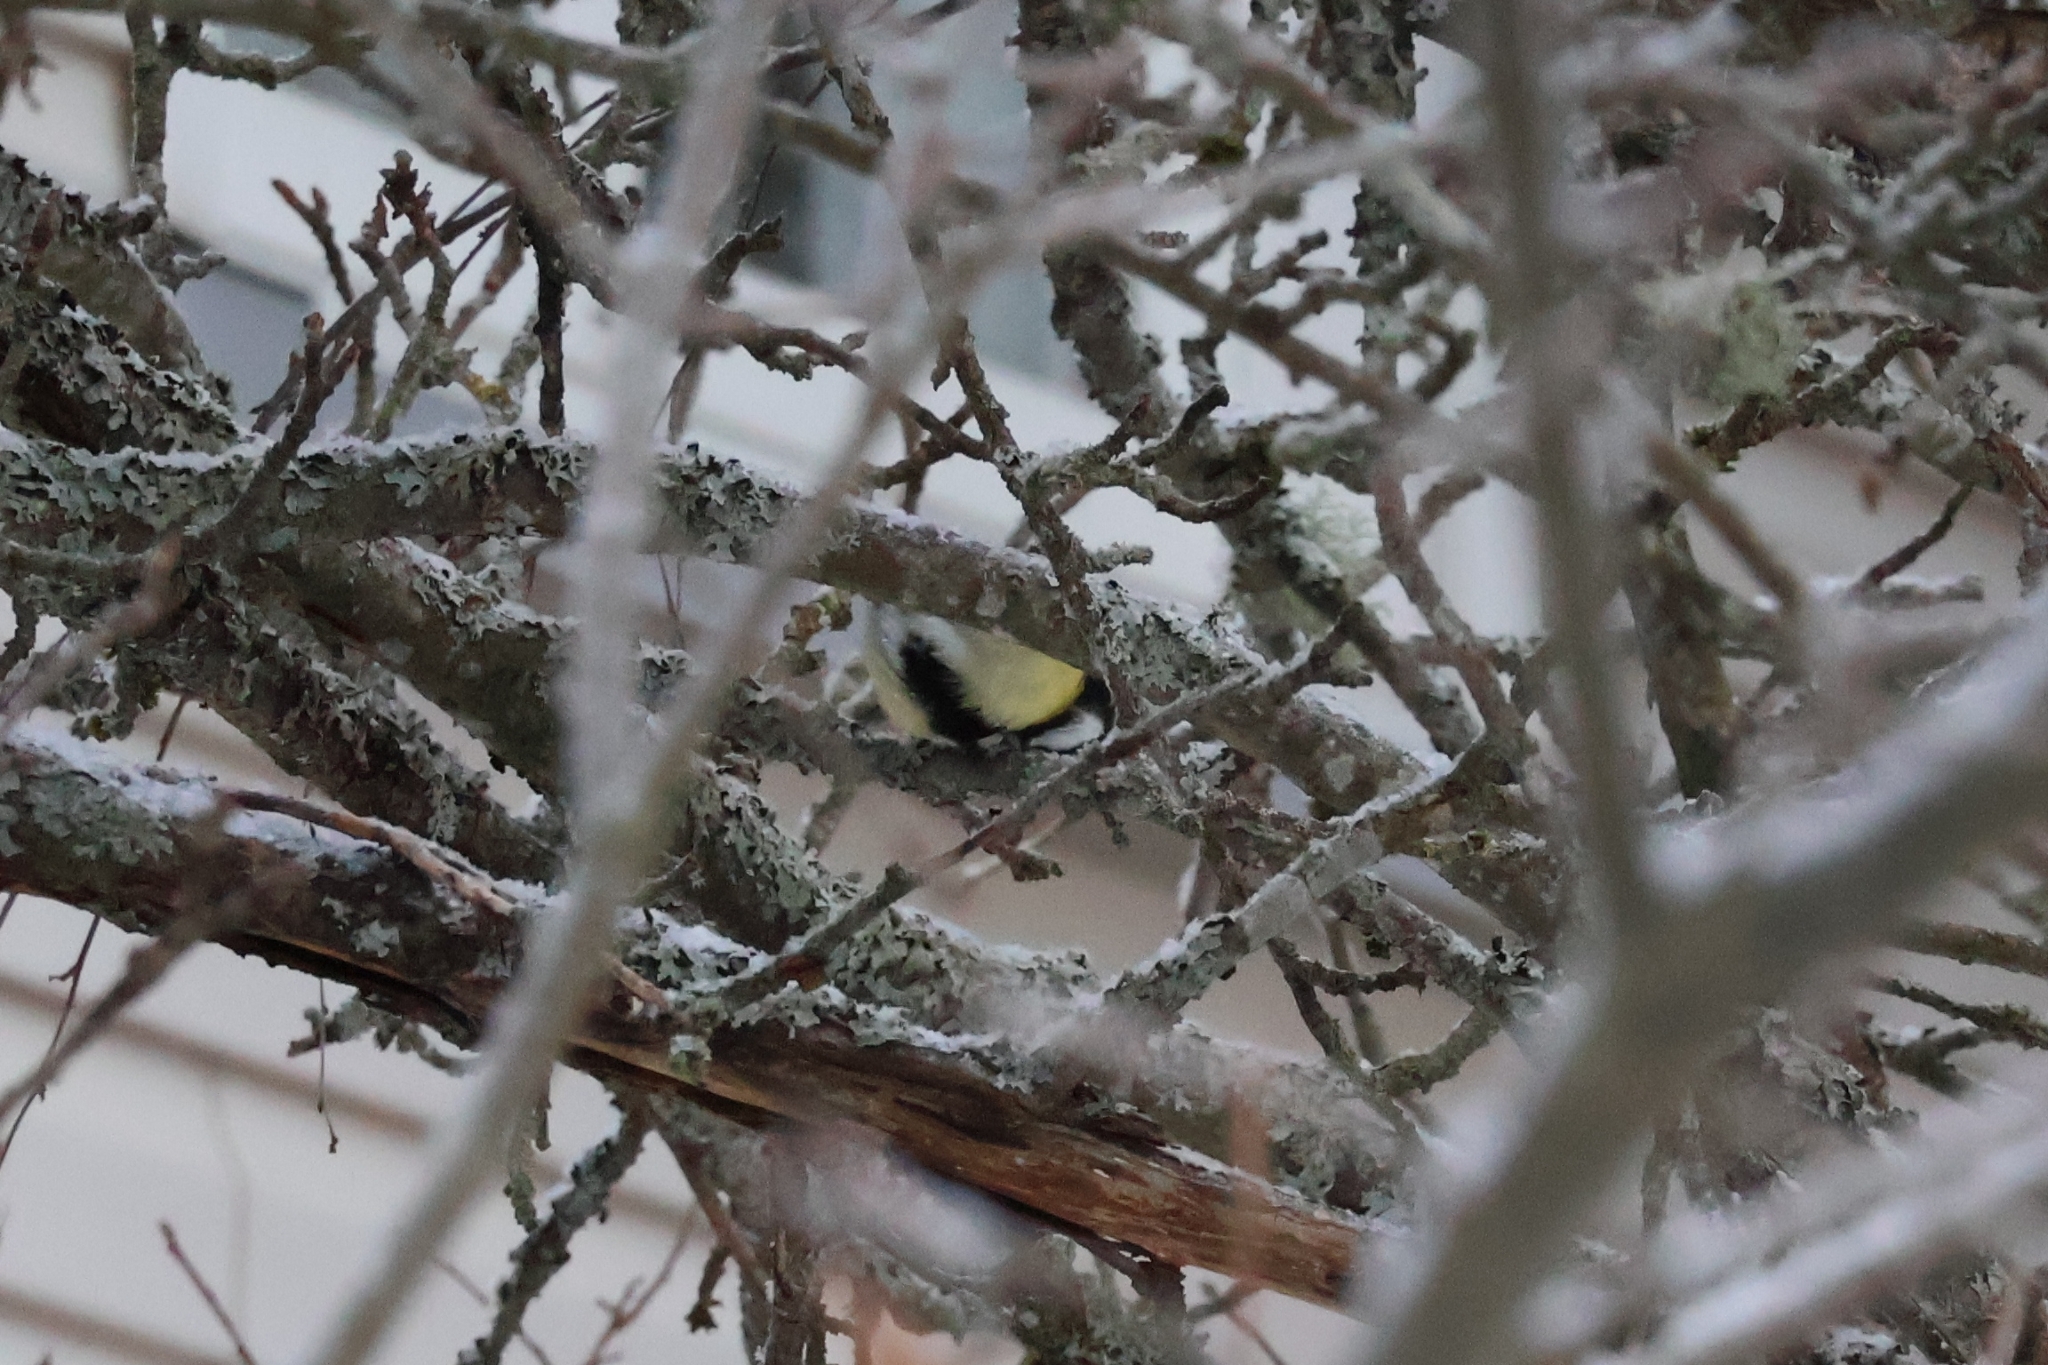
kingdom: Animalia
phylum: Chordata
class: Aves
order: Passeriformes
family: Paridae
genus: Parus
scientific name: Parus major
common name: Great tit
